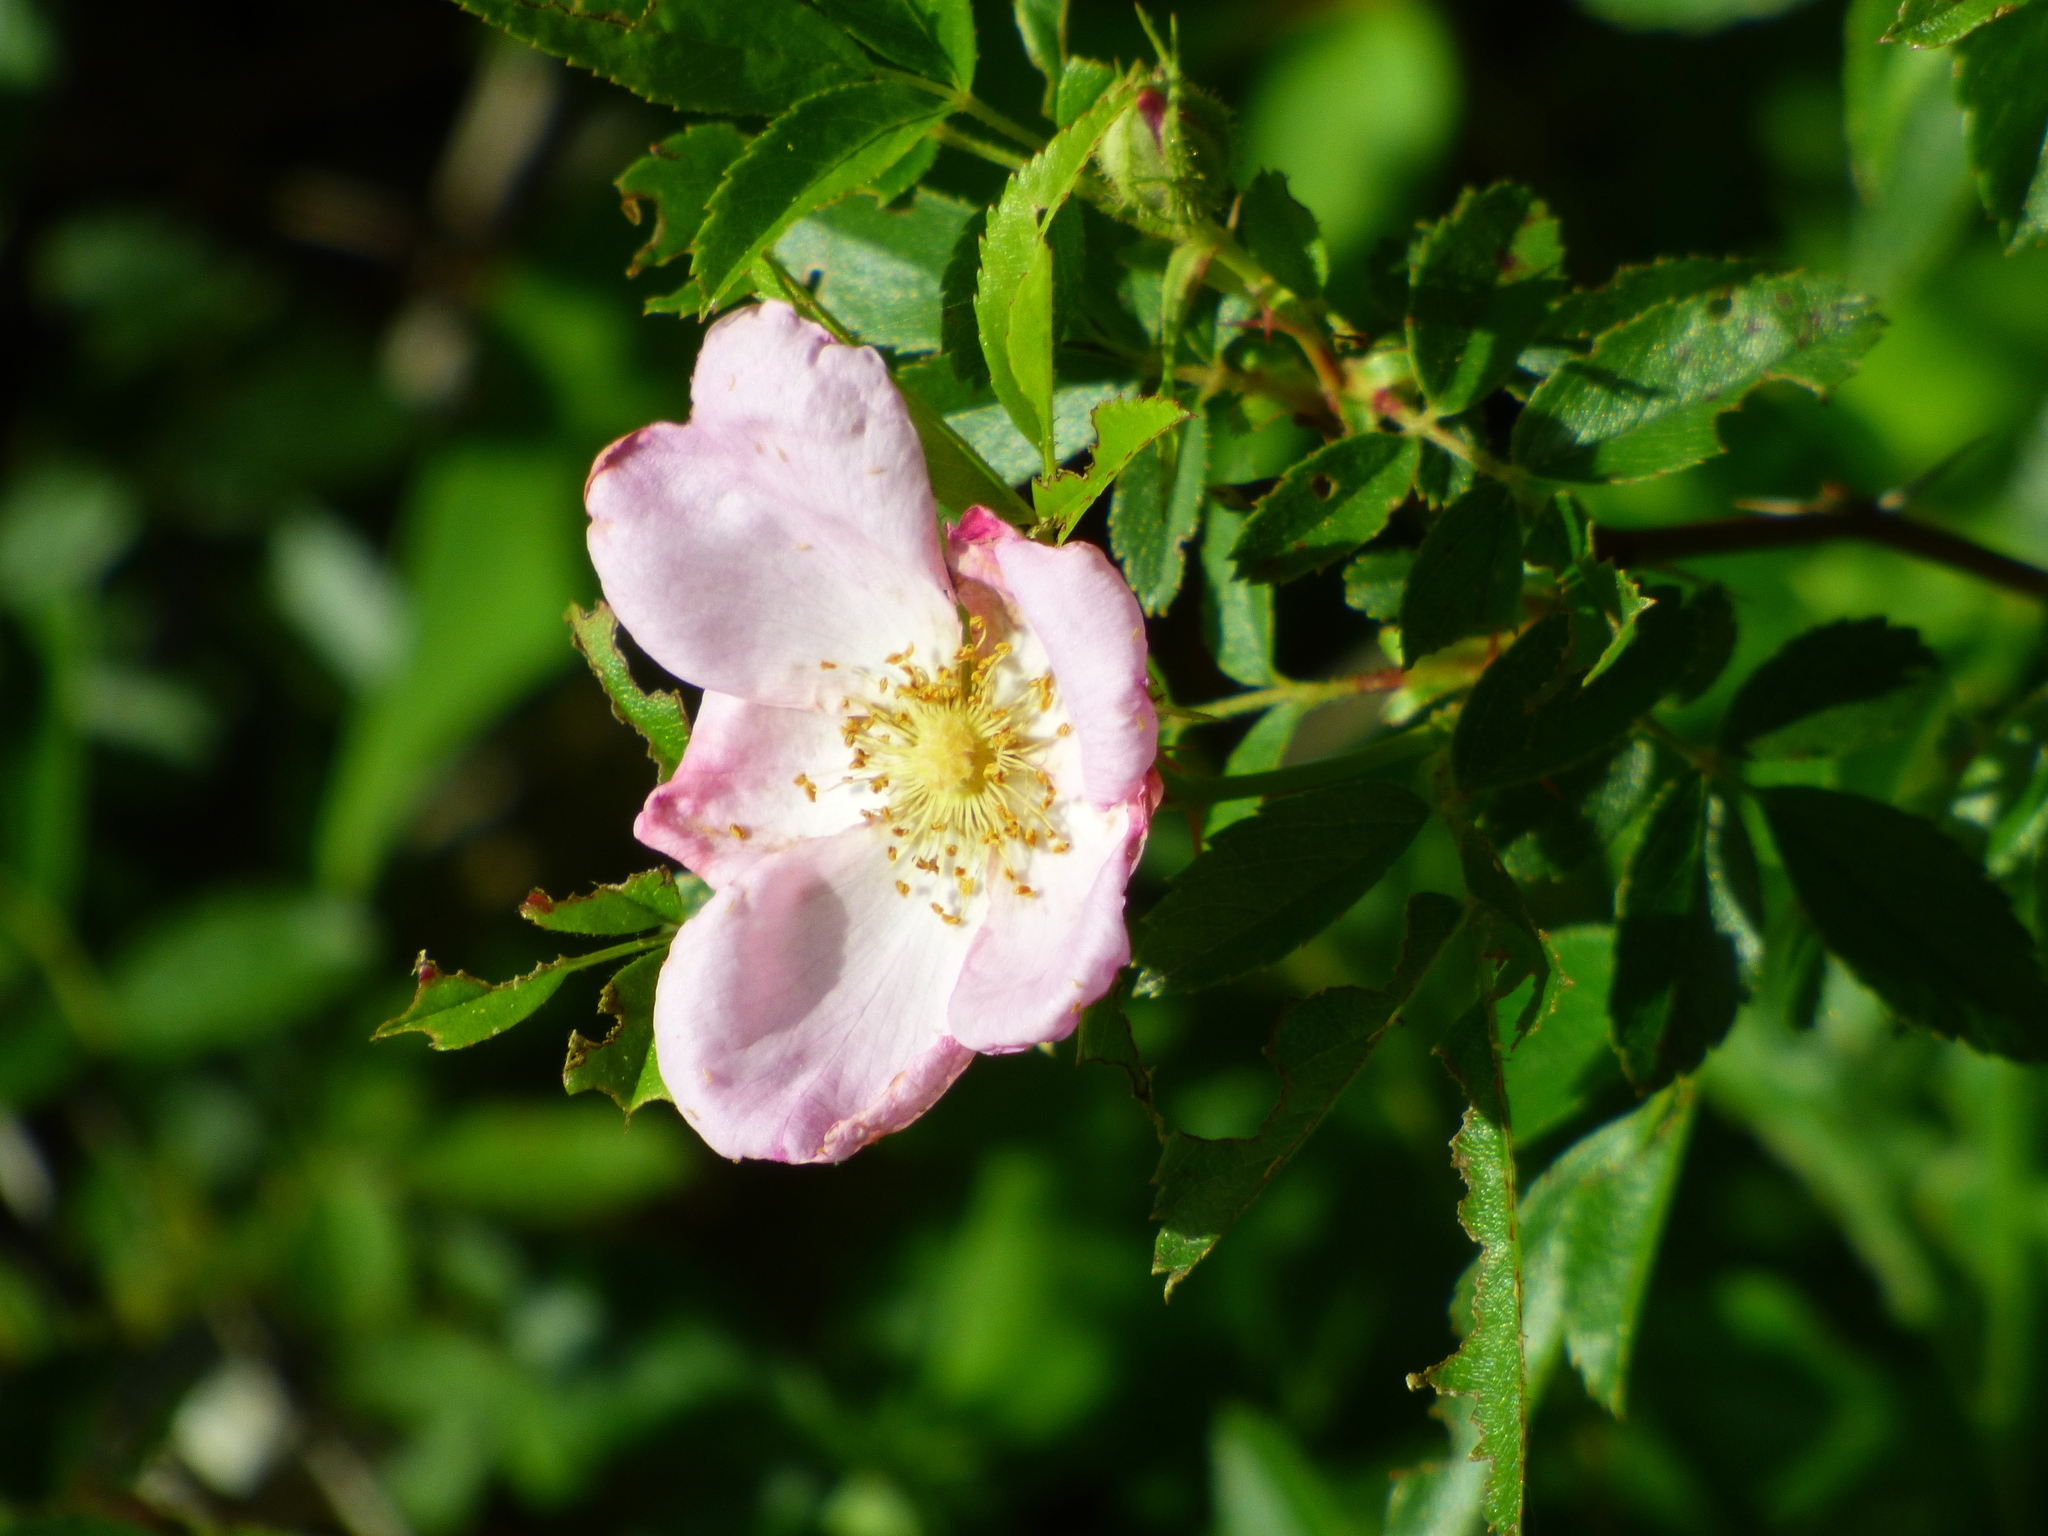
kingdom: Plantae
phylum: Tracheophyta
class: Magnoliopsida
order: Rosales
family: Rosaceae
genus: Rosa
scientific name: Rosa carolina
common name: Pasture rose
